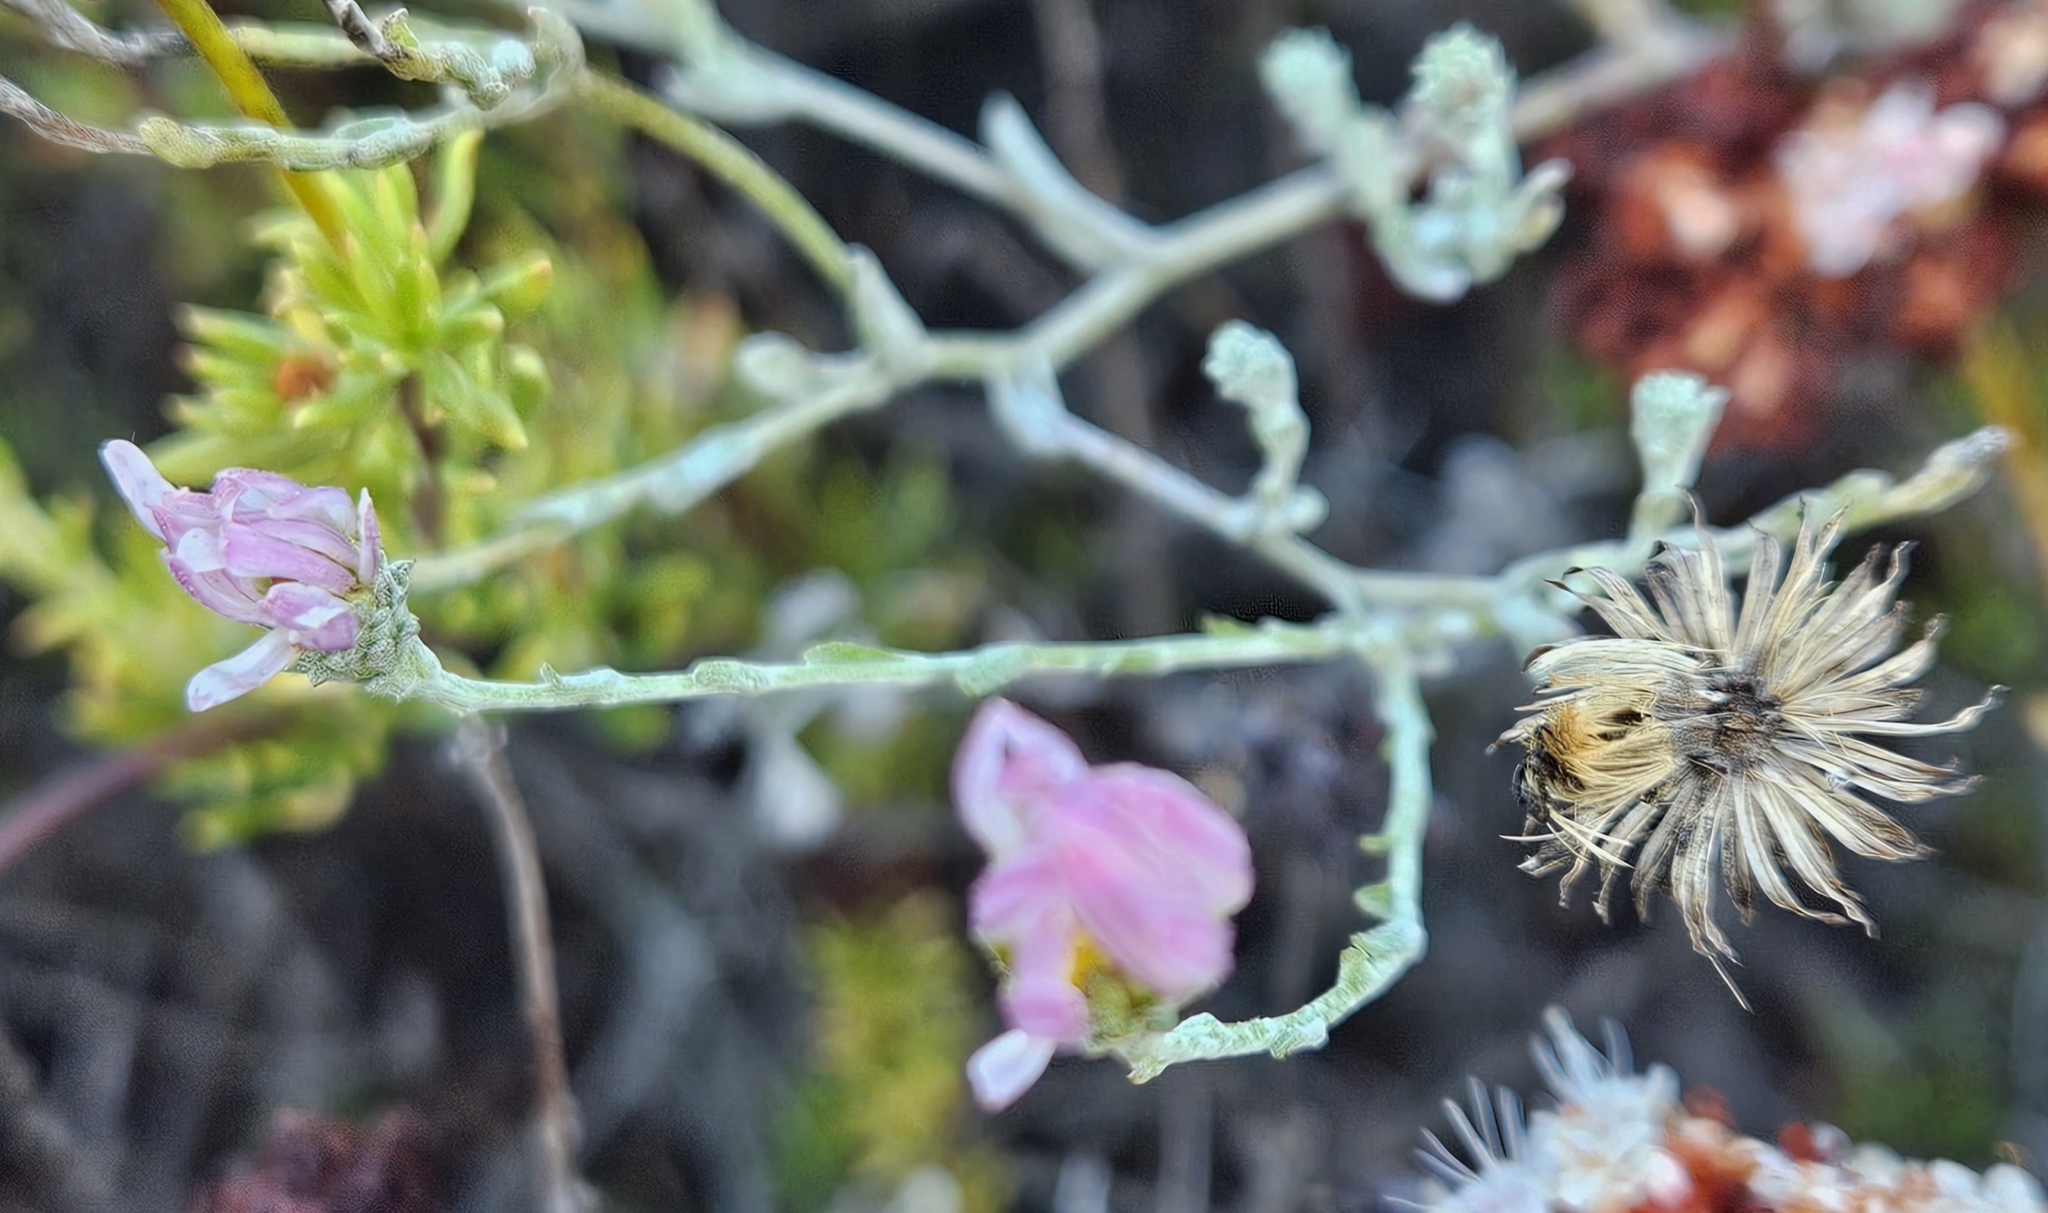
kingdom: Plantae
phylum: Tracheophyta
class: Magnoliopsida
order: Asterales
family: Asteraceae
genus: Corethrogyne
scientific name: Corethrogyne filaginifolia
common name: Sand-aster
